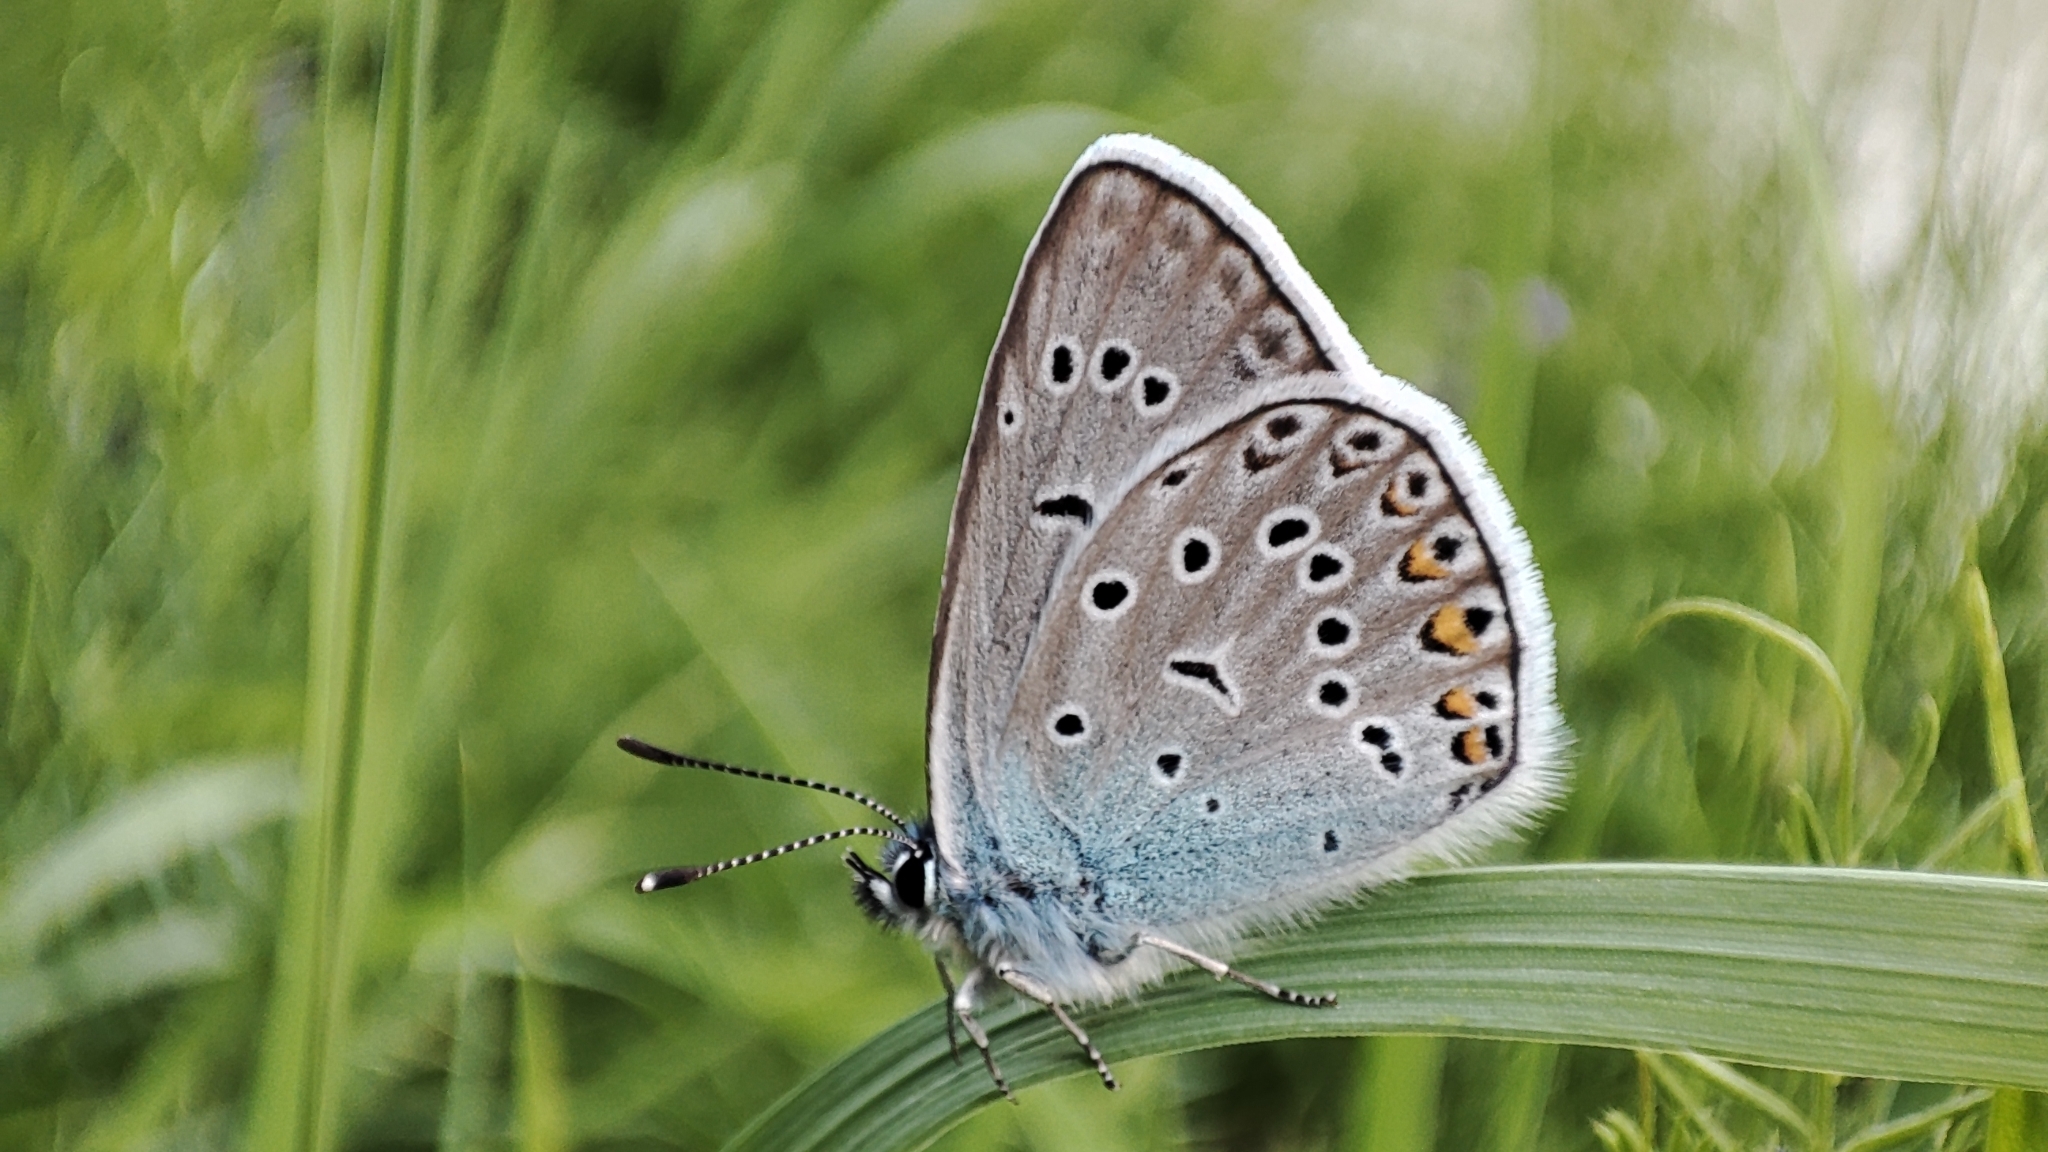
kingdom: Animalia
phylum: Arthropoda
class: Insecta
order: Lepidoptera
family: Lycaenidae
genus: Plebejus
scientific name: Plebejus amanda
